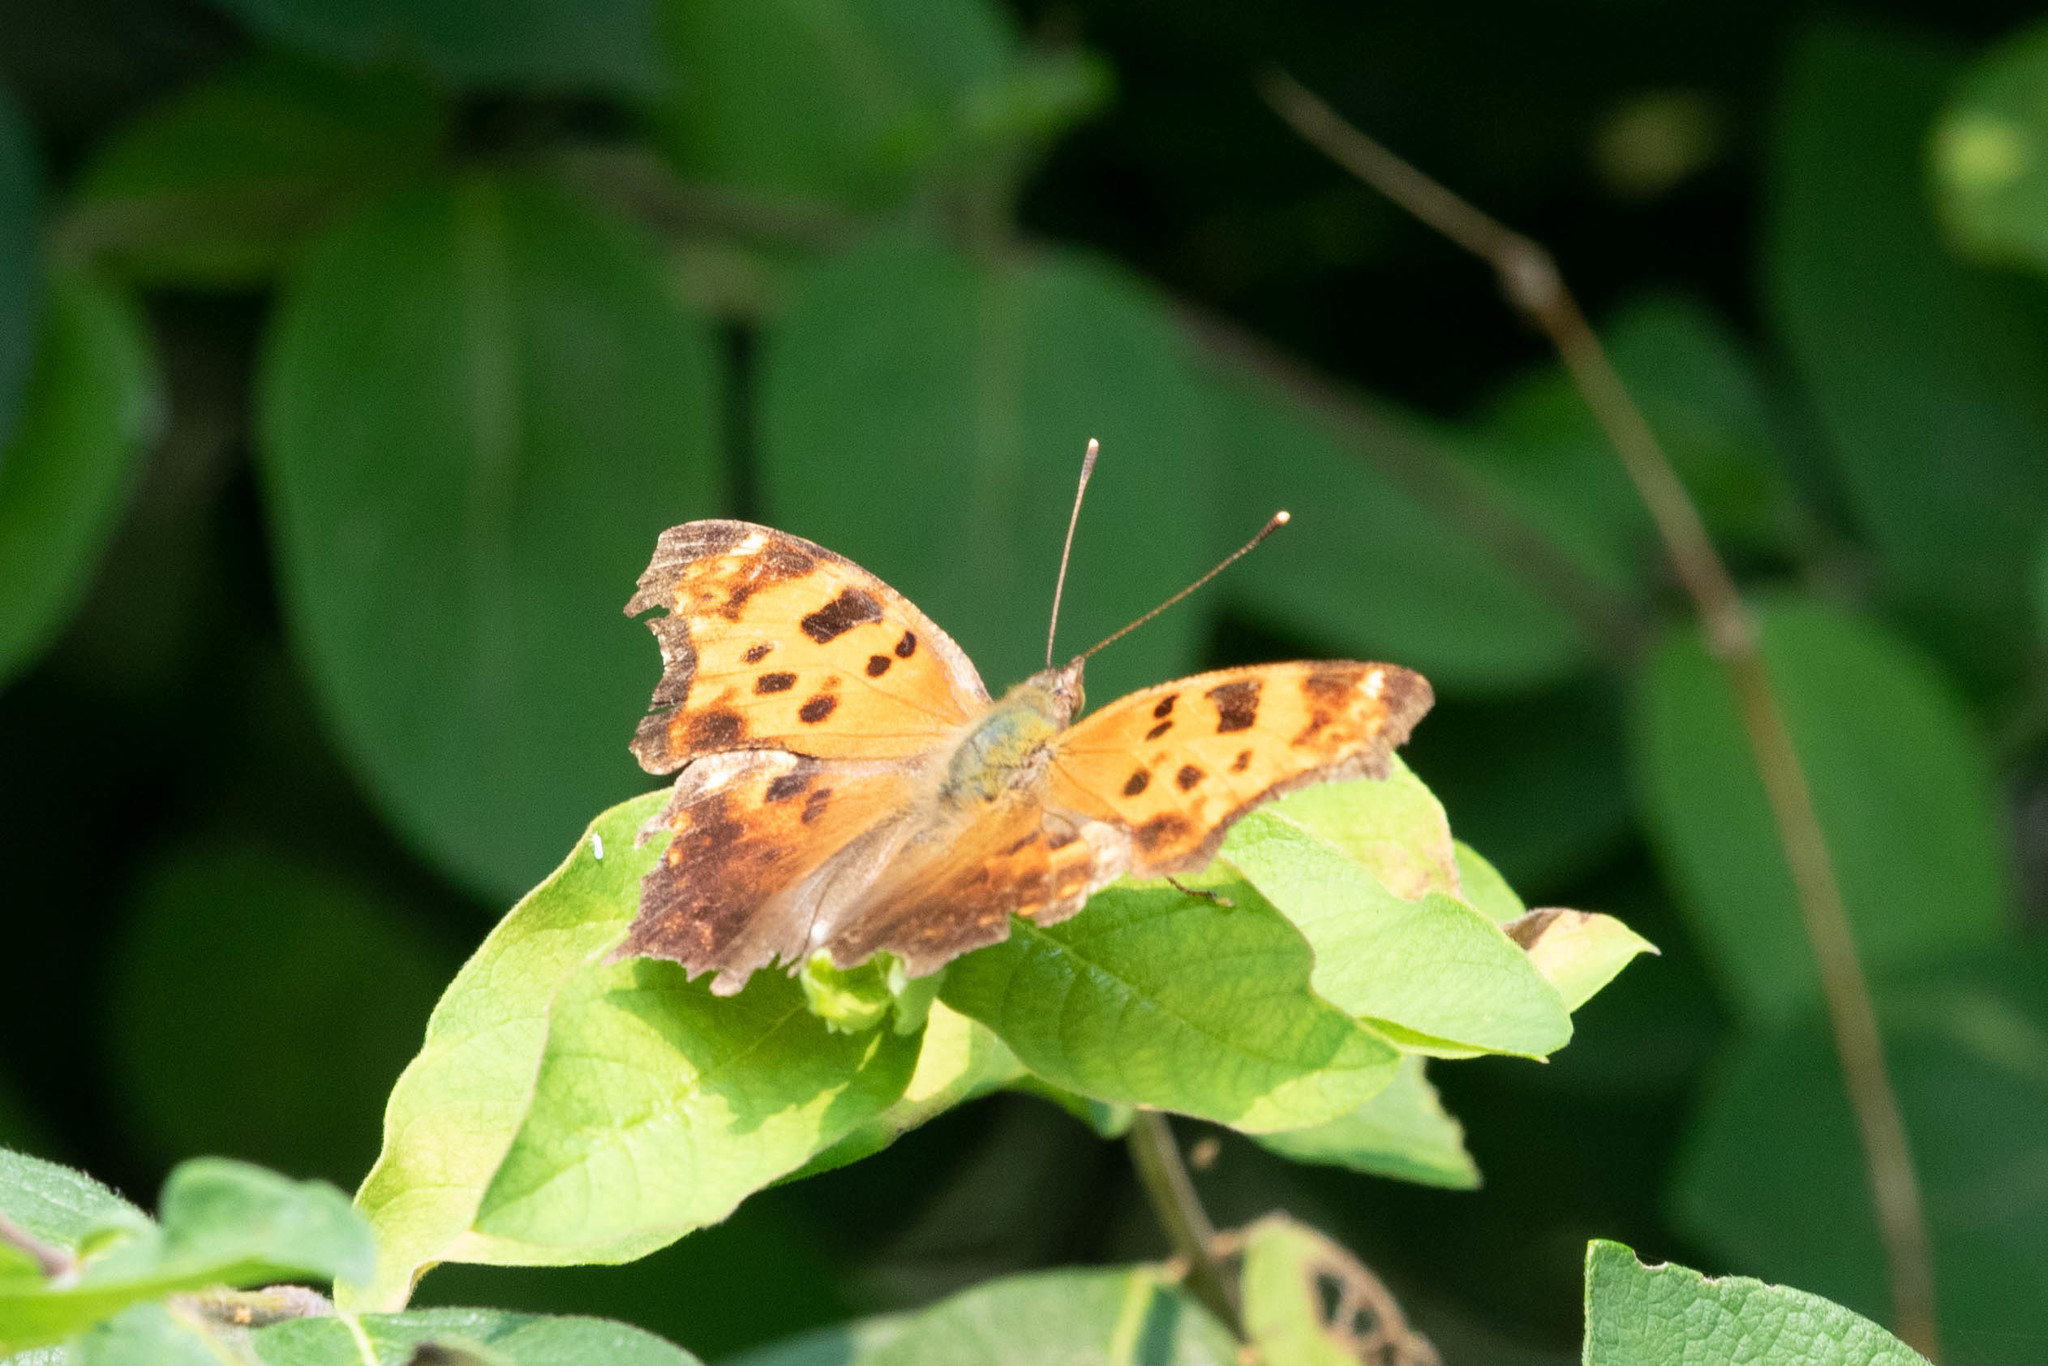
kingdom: Animalia
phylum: Arthropoda
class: Insecta
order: Lepidoptera
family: Nymphalidae
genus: Polygonia
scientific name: Polygonia comma
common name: Eastern comma
